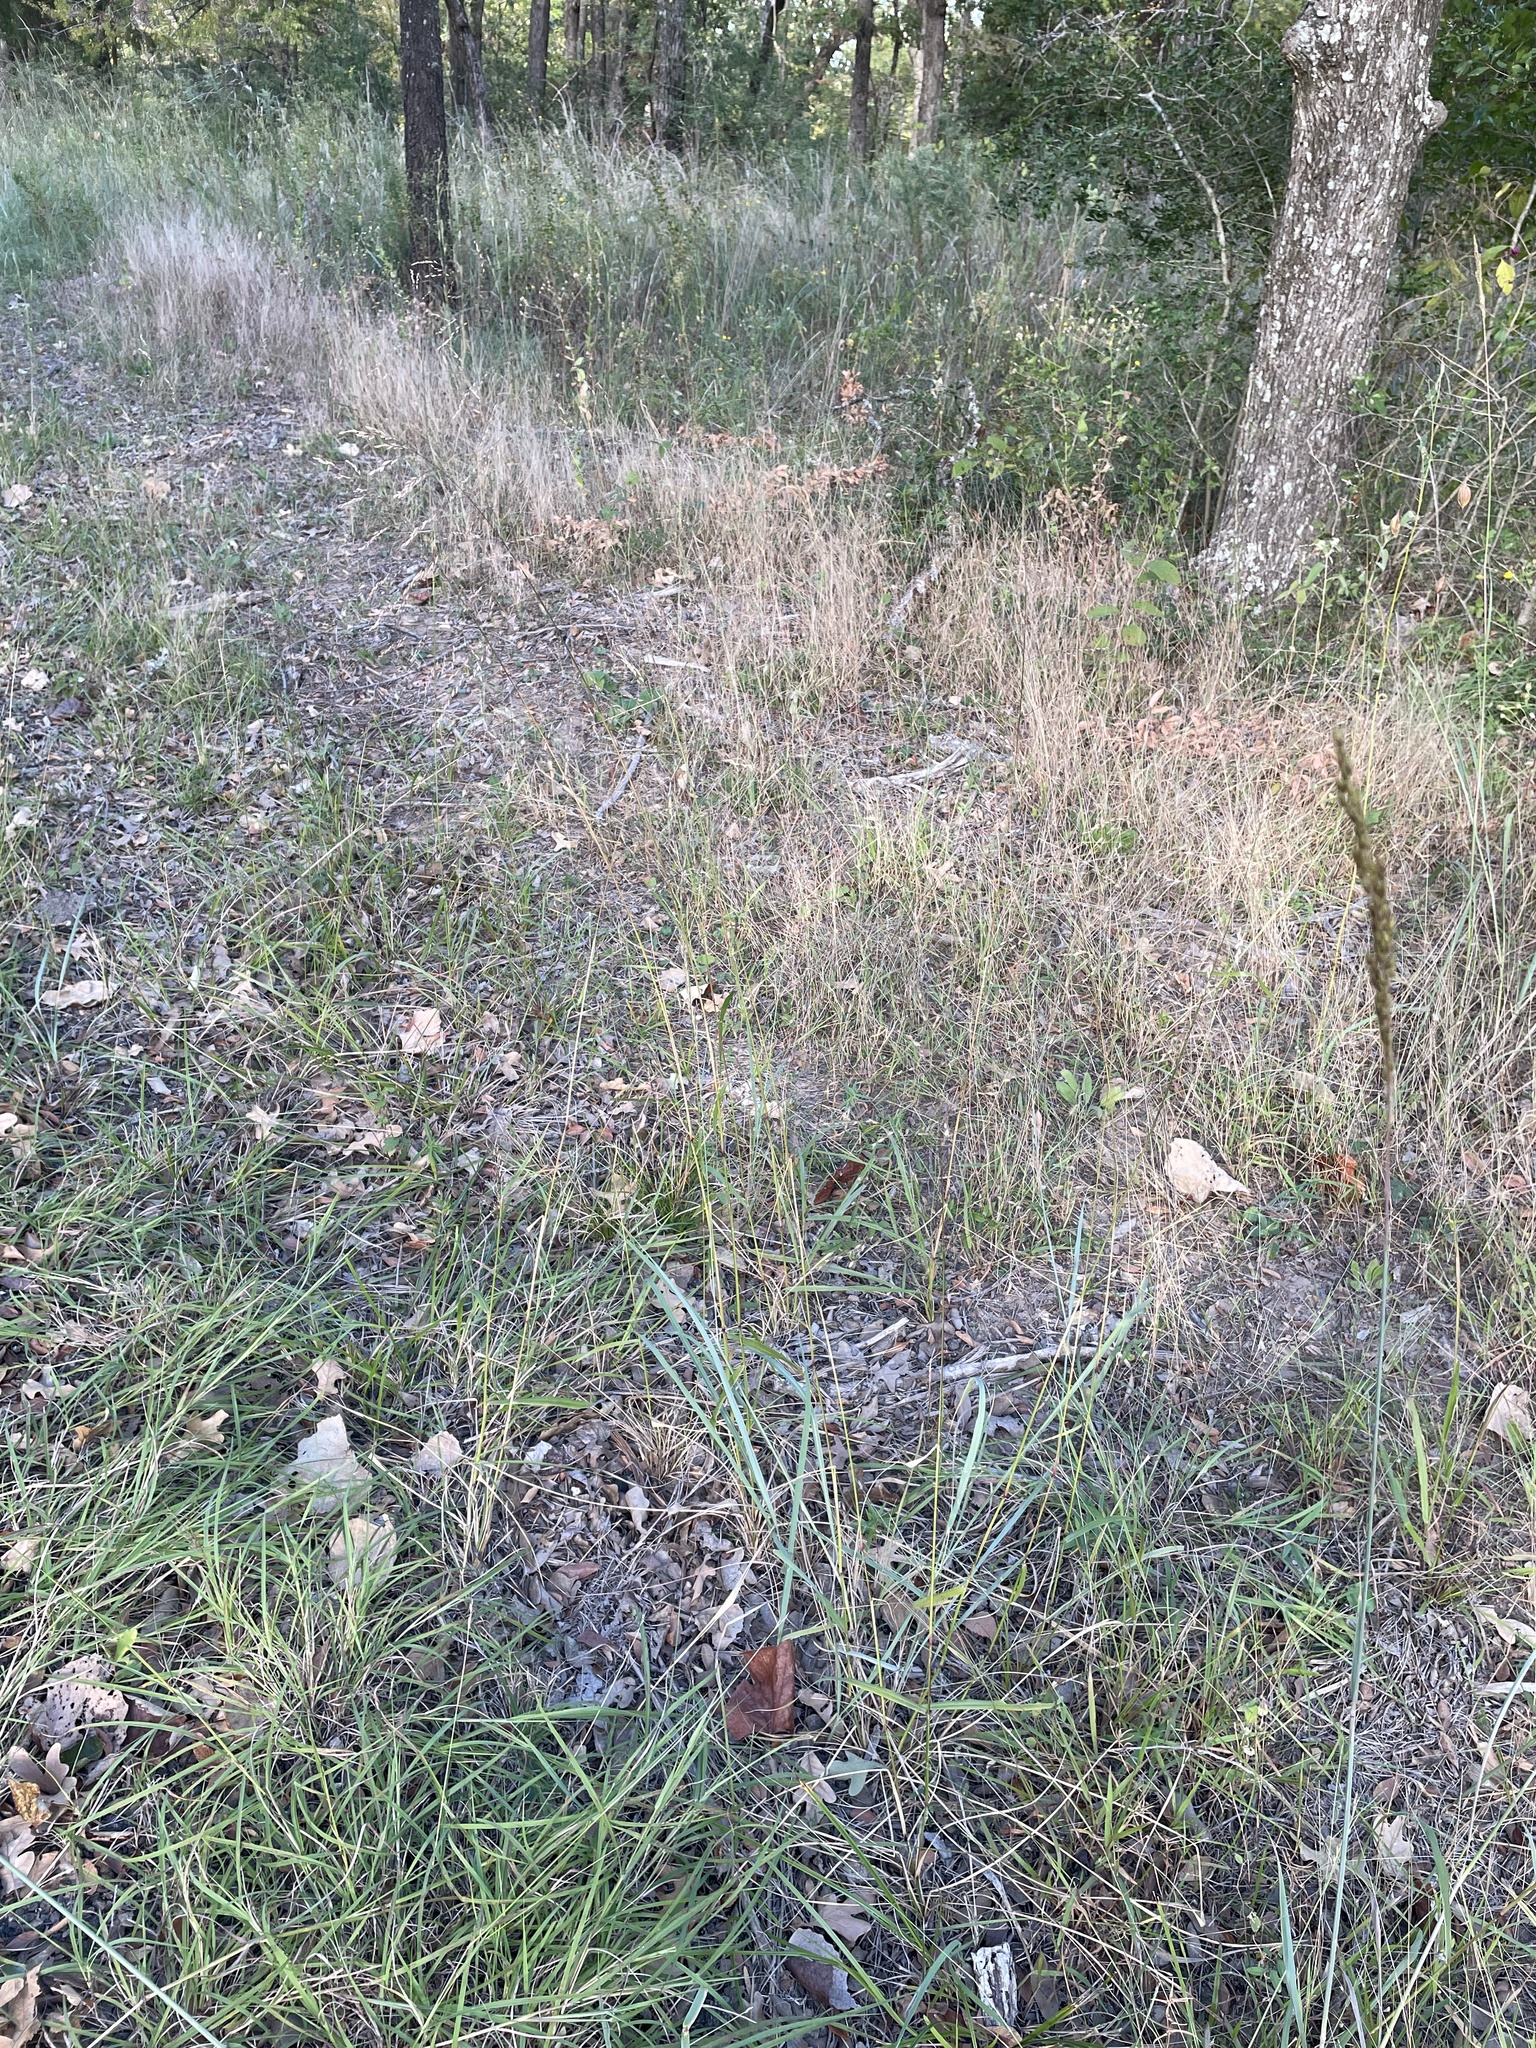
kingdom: Plantae
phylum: Tracheophyta
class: Liliopsida
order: Poales
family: Poaceae
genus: Tridens
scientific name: Tridens flavus
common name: Purpletop
